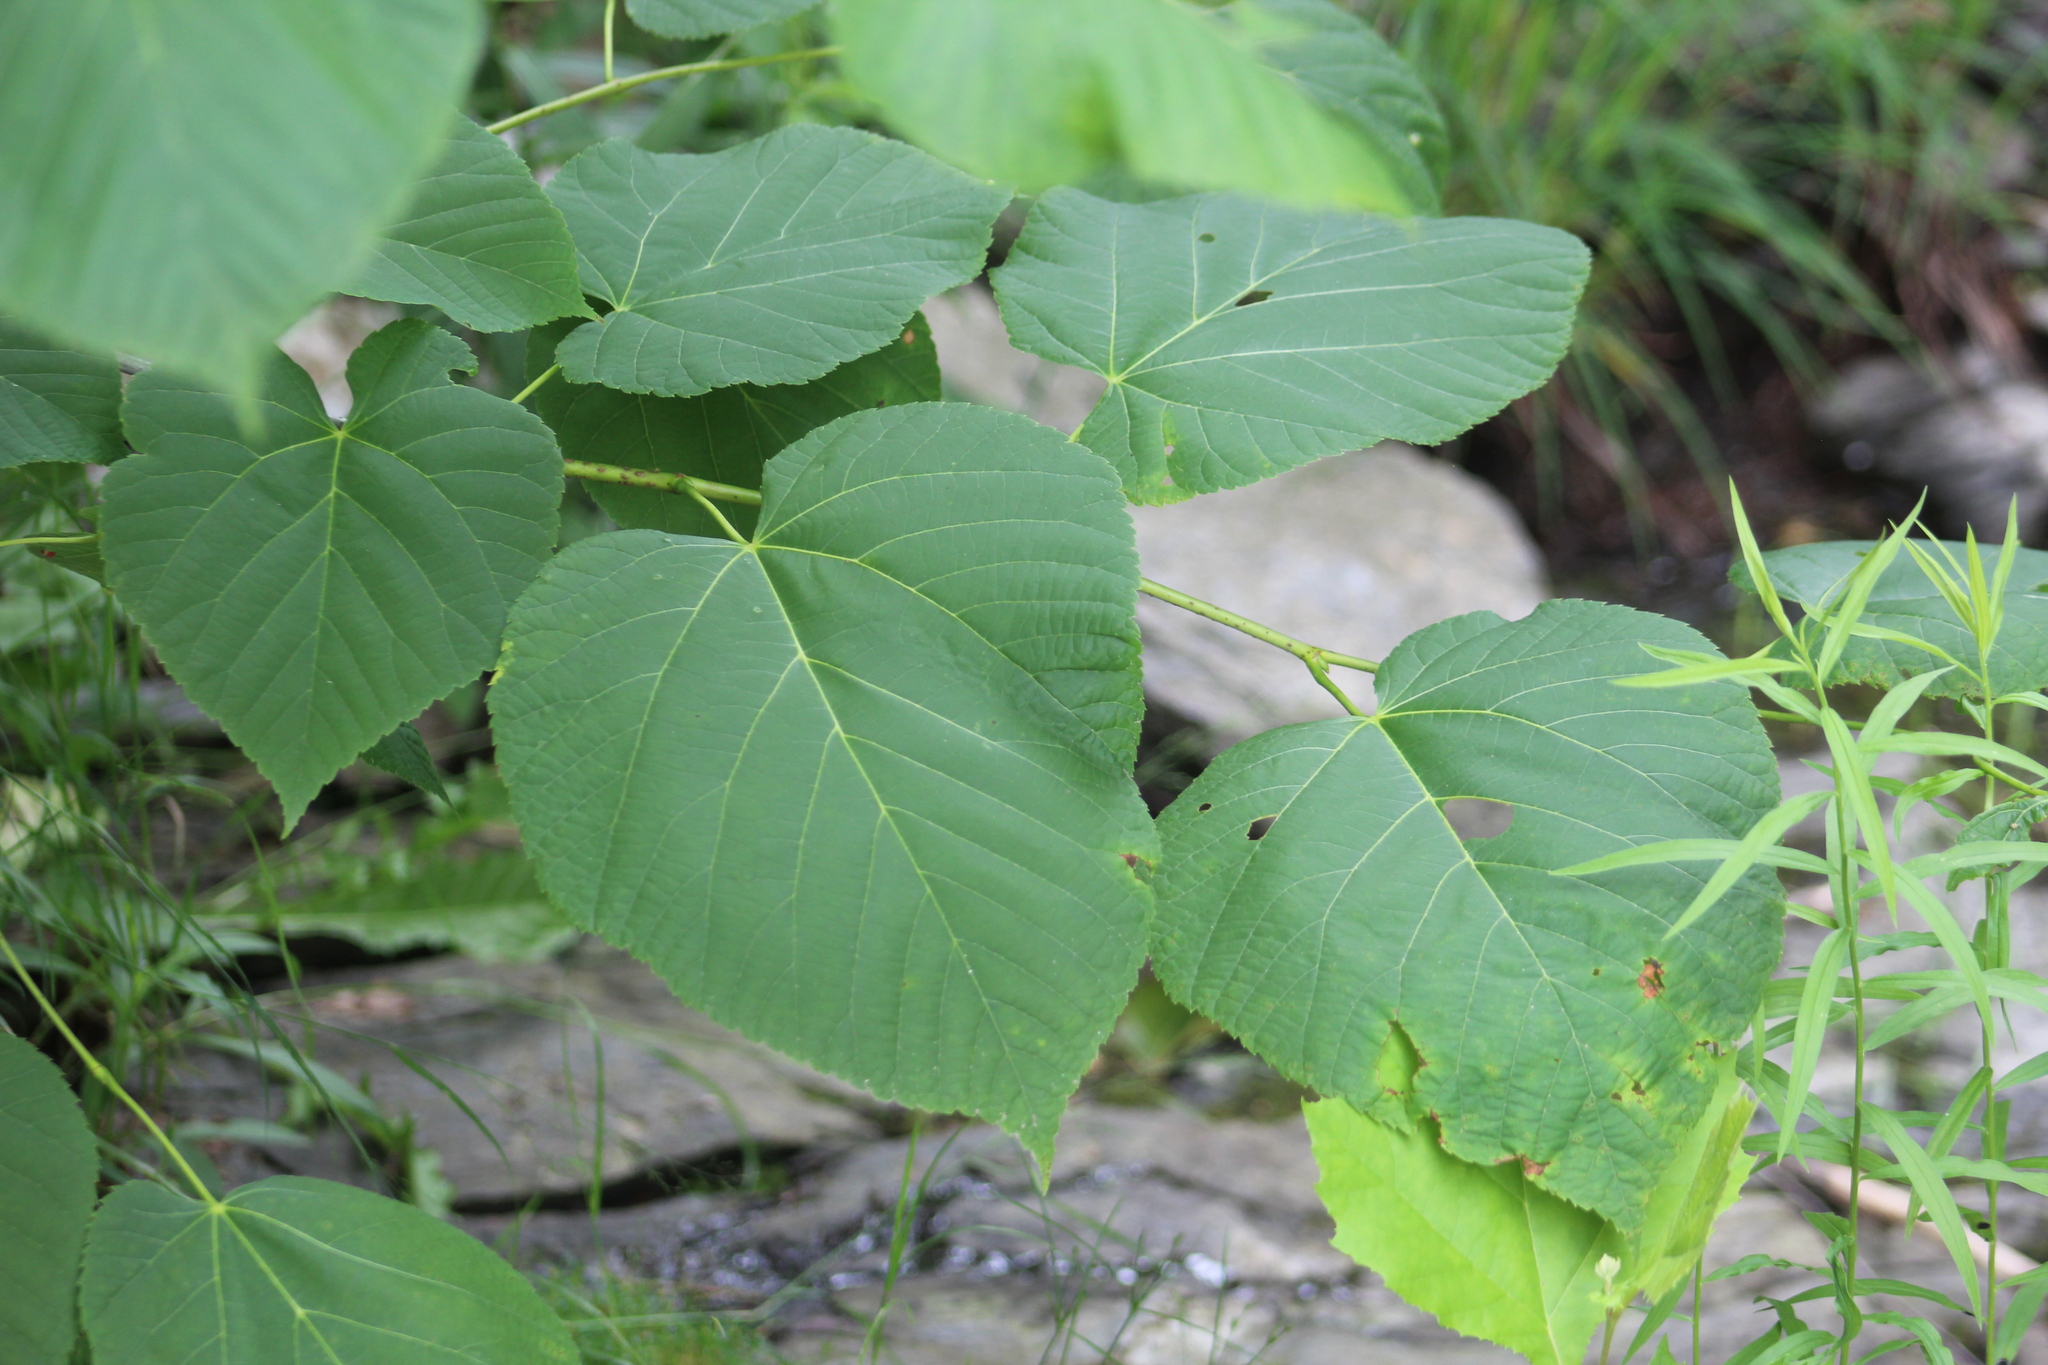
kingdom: Plantae
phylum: Tracheophyta
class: Magnoliopsida
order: Malvales
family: Malvaceae
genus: Tilia
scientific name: Tilia americana
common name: Basswood
